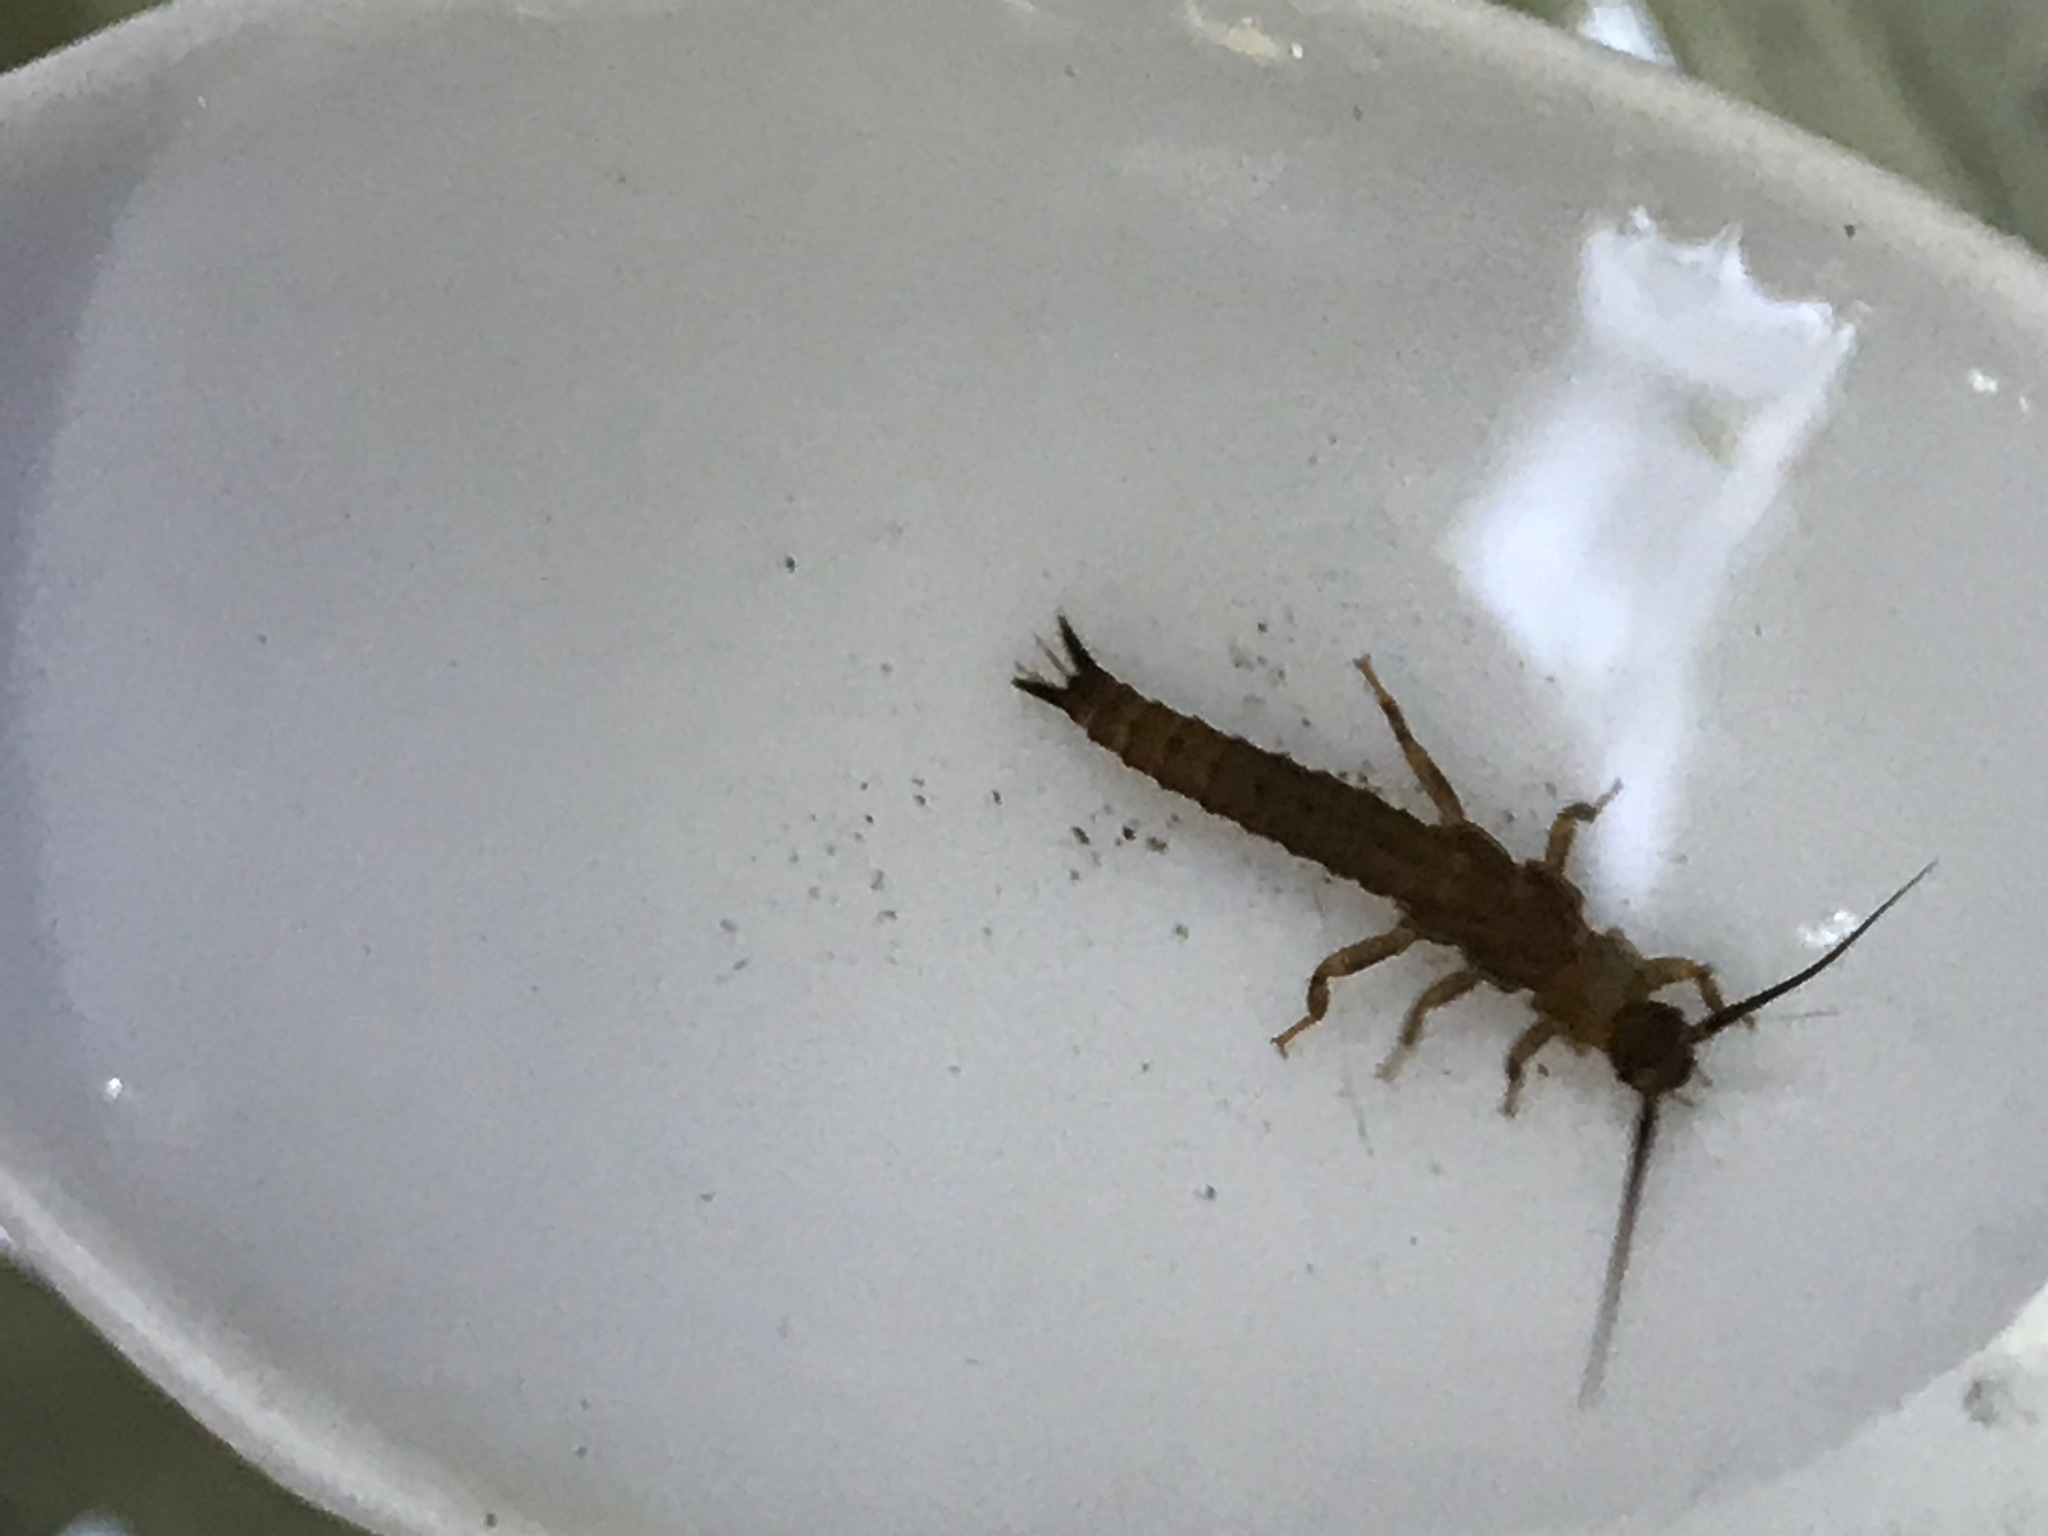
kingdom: Animalia
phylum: Arthropoda
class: Insecta
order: Plecoptera
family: Austroperlidae
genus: Austroperla
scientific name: Austroperla cyrene
